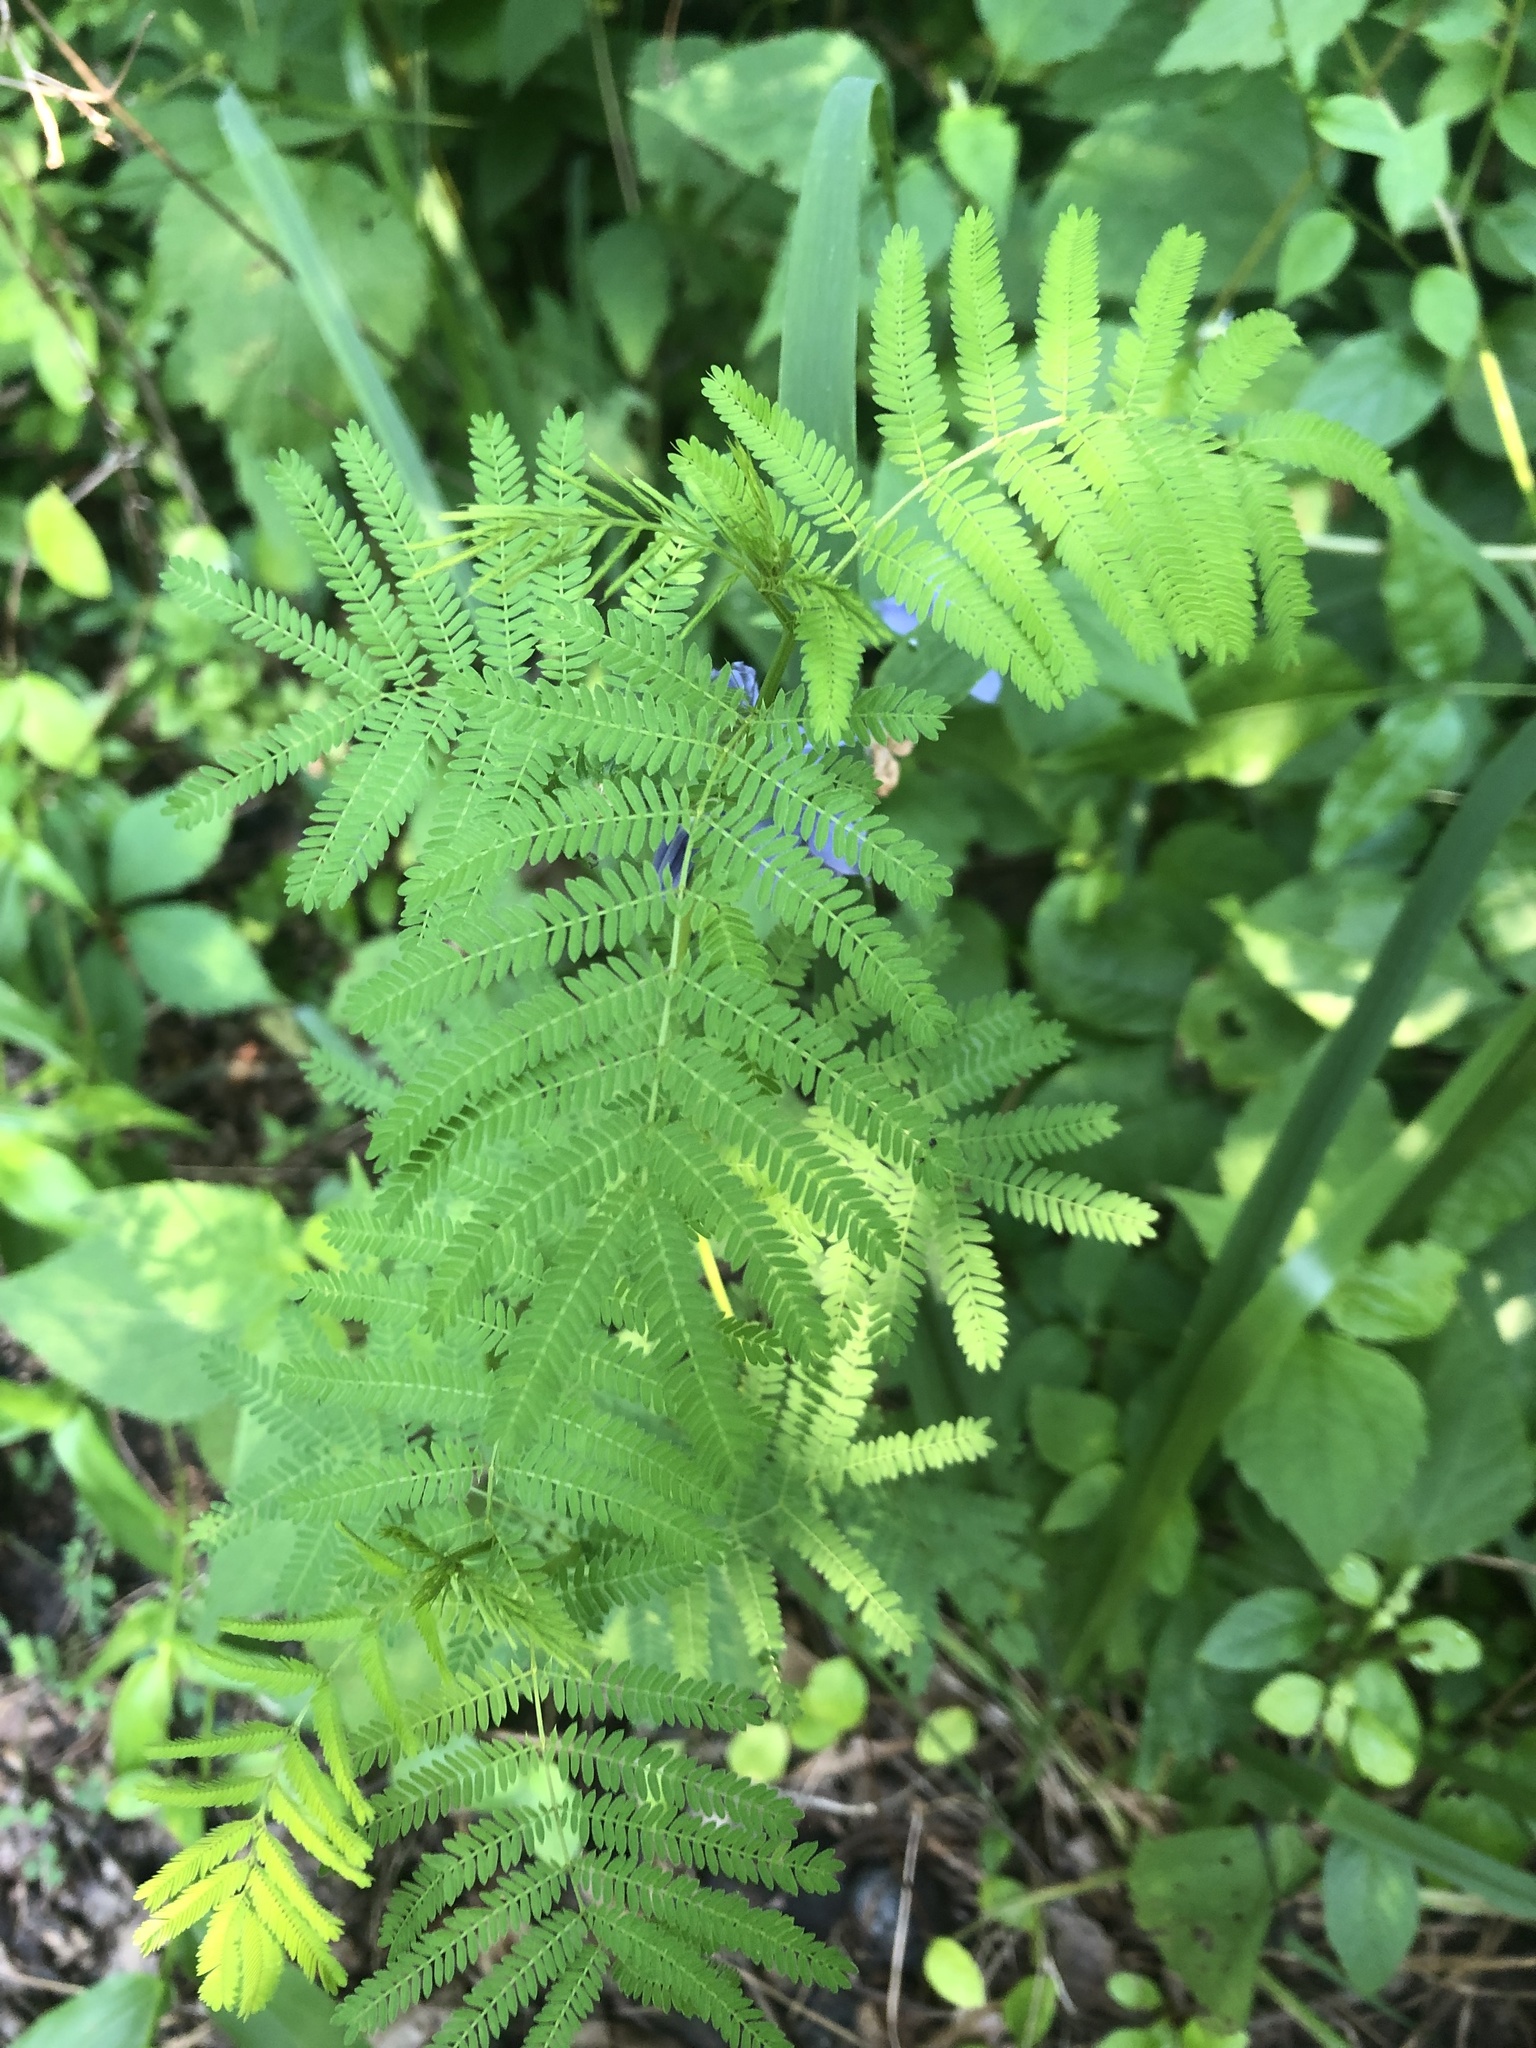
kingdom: Plantae
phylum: Tracheophyta
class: Magnoliopsida
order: Fabales
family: Fabaceae
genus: Desmanthus
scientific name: Desmanthus illinoensis
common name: Illinois bundle-flower
